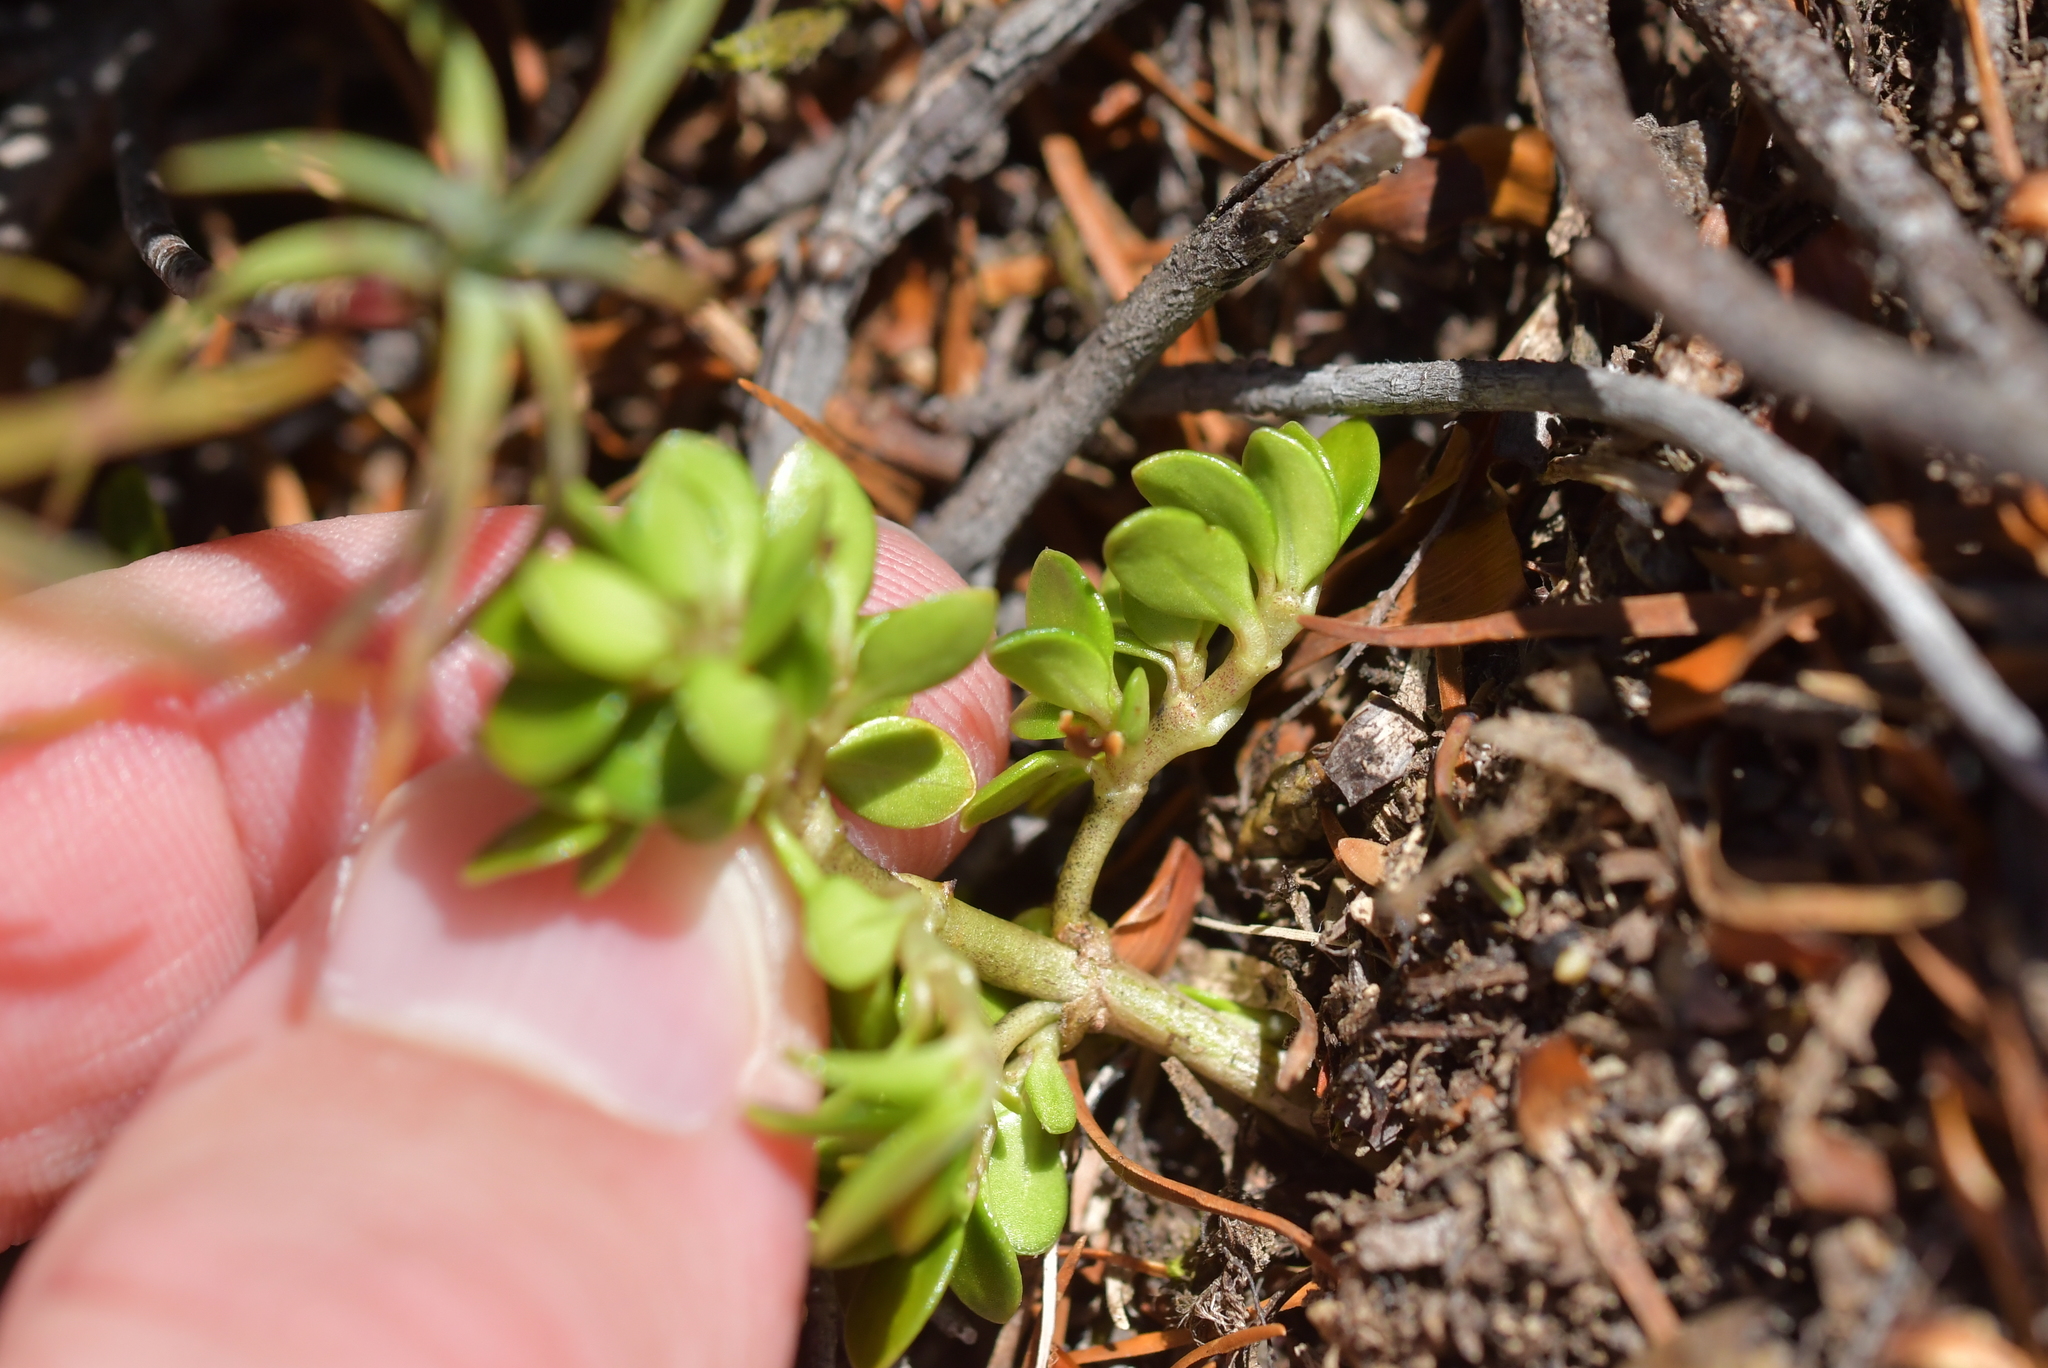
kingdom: Plantae
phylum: Tracheophyta
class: Magnoliopsida
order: Gentianales
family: Rubiaceae
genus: Coprosma
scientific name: Coprosma perpusilla
